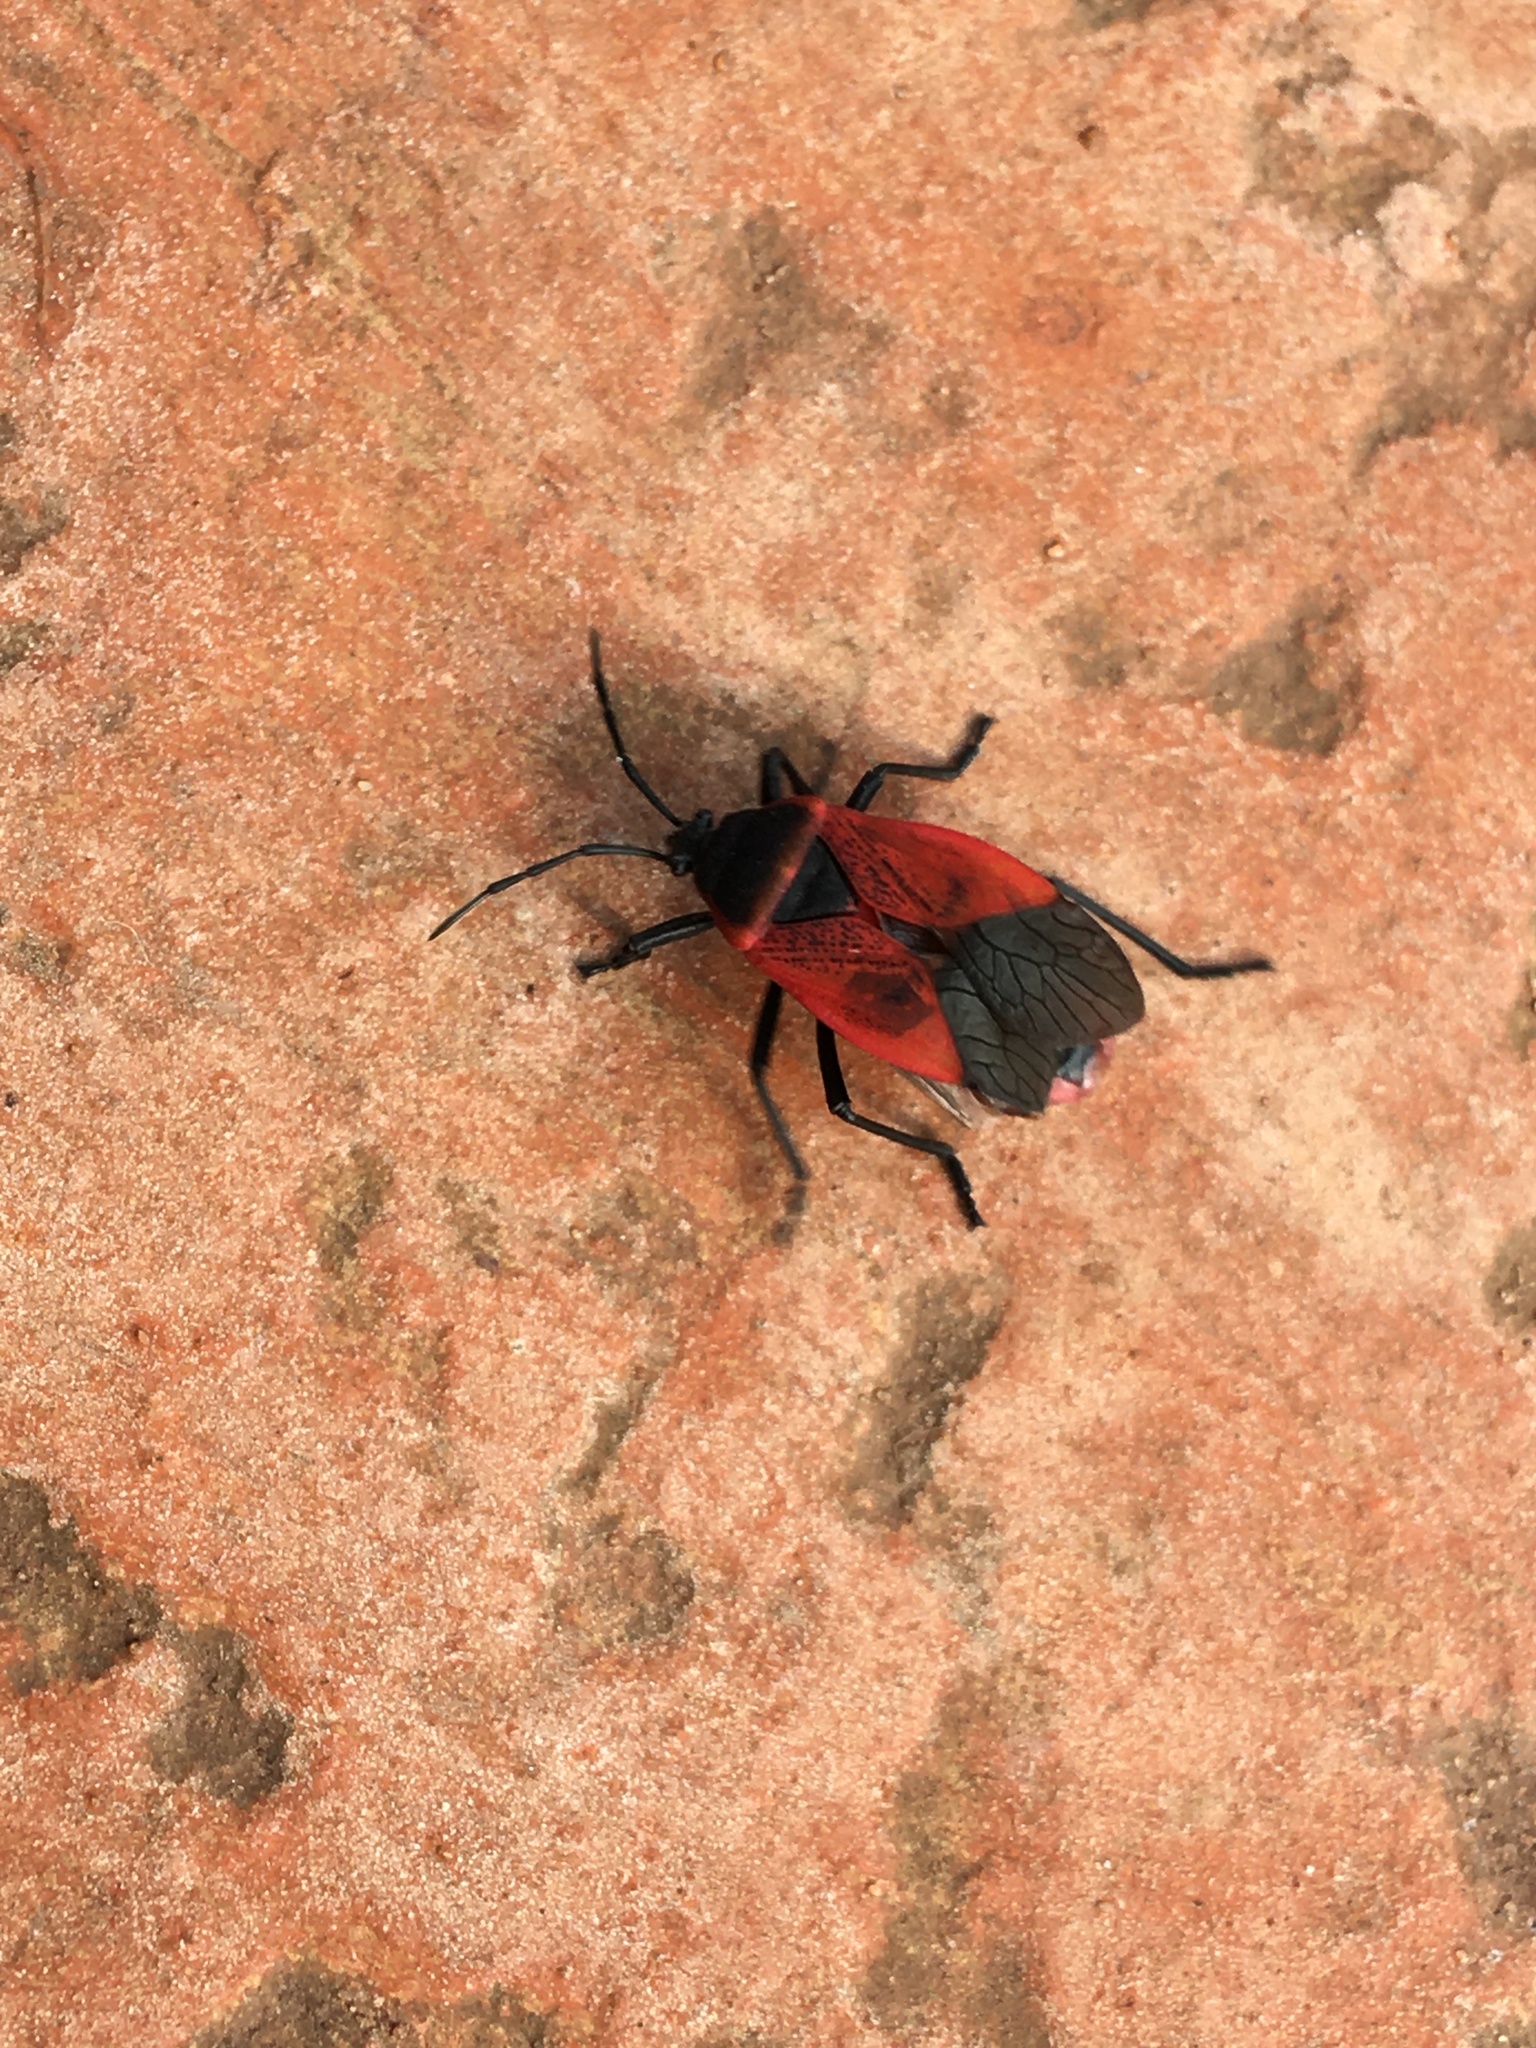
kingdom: Animalia
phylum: Arthropoda
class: Insecta
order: Hemiptera
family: Largidae
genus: Largus
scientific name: Largus rufipennis
